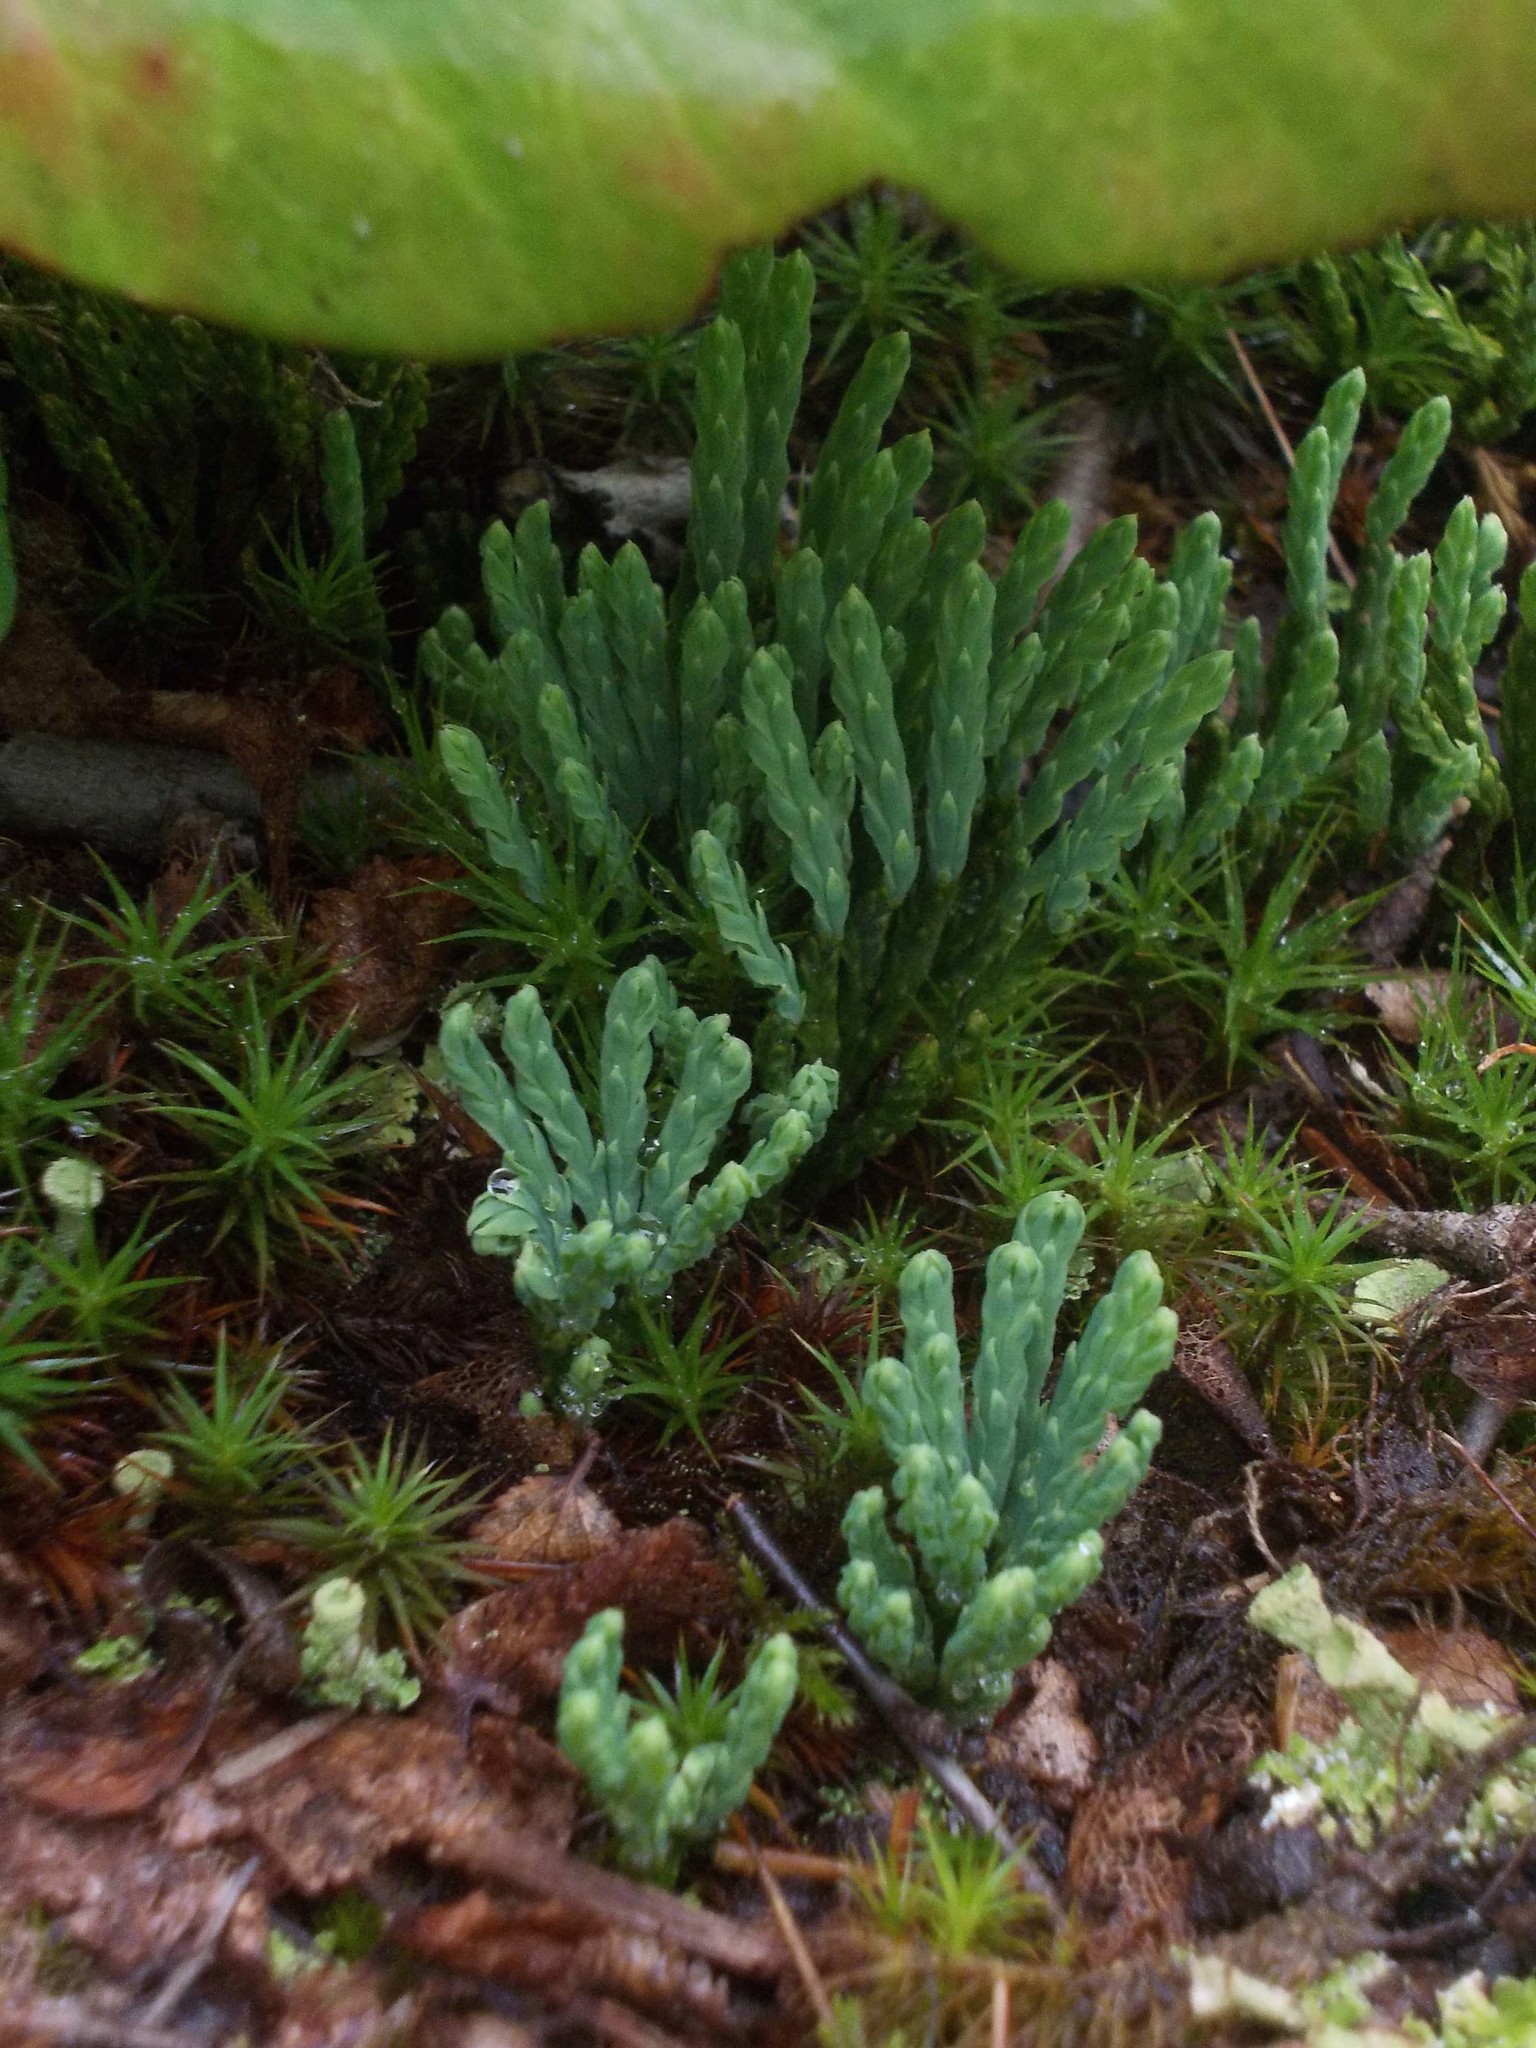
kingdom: Plantae
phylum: Tracheophyta
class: Lycopodiopsida
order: Lycopodiales
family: Lycopodiaceae
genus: Diphasiastrum
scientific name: Diphasiastrum alpinum
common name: Alpine clubmoss
